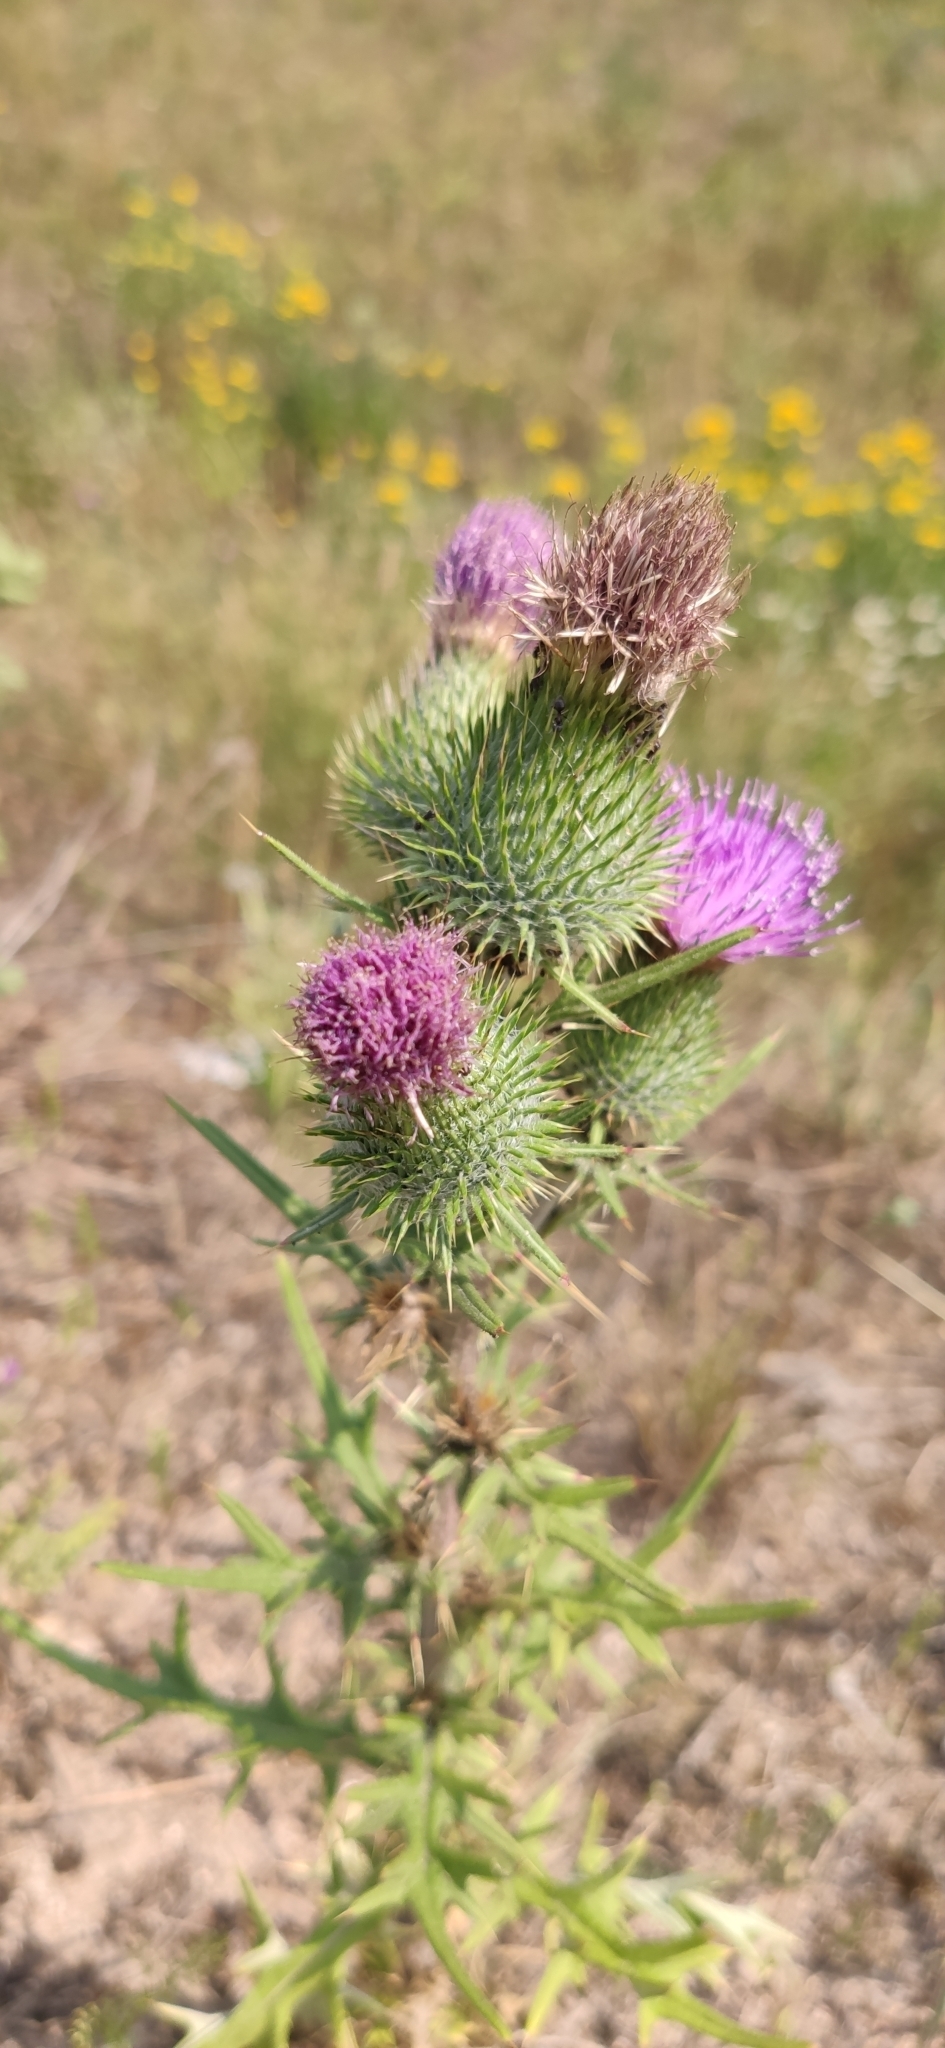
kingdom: Plantae
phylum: Tracheophyta
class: Magnoliopsida
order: Asterales
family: Asteraceae
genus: Cirsium
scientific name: Cirsium vulgare
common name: Bull thistle
